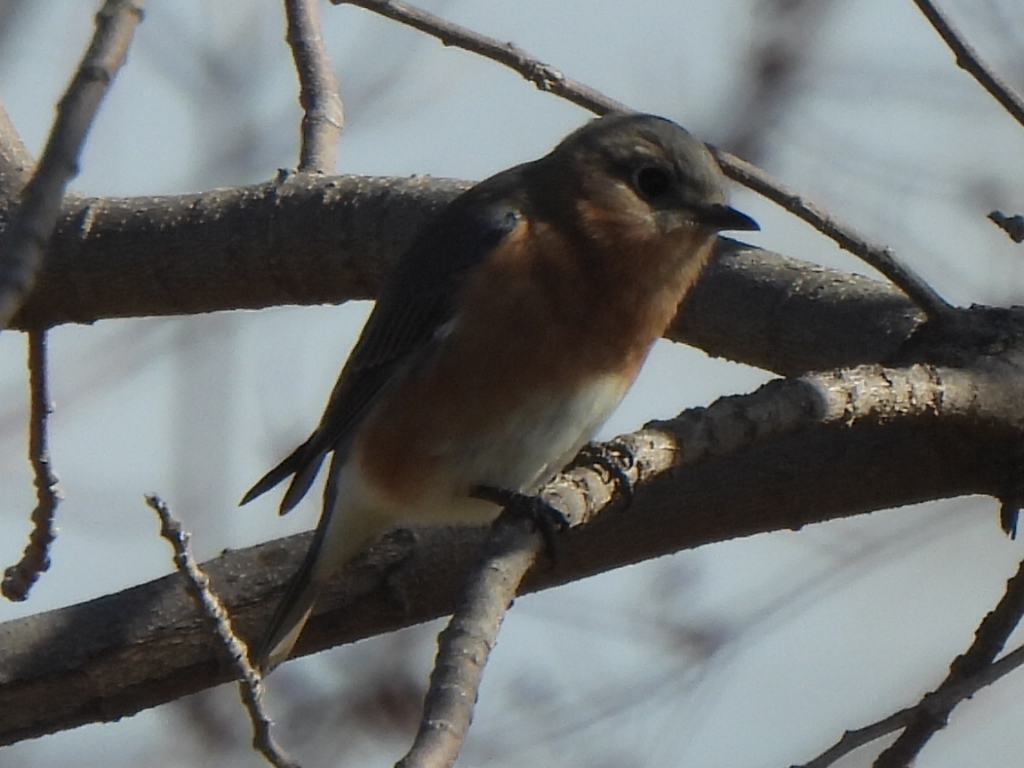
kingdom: Animalia
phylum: Chordata
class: Aves
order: Passeriformes
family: Turdidae
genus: Sialia
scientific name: Sialia sialis
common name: Eastern bluebird
